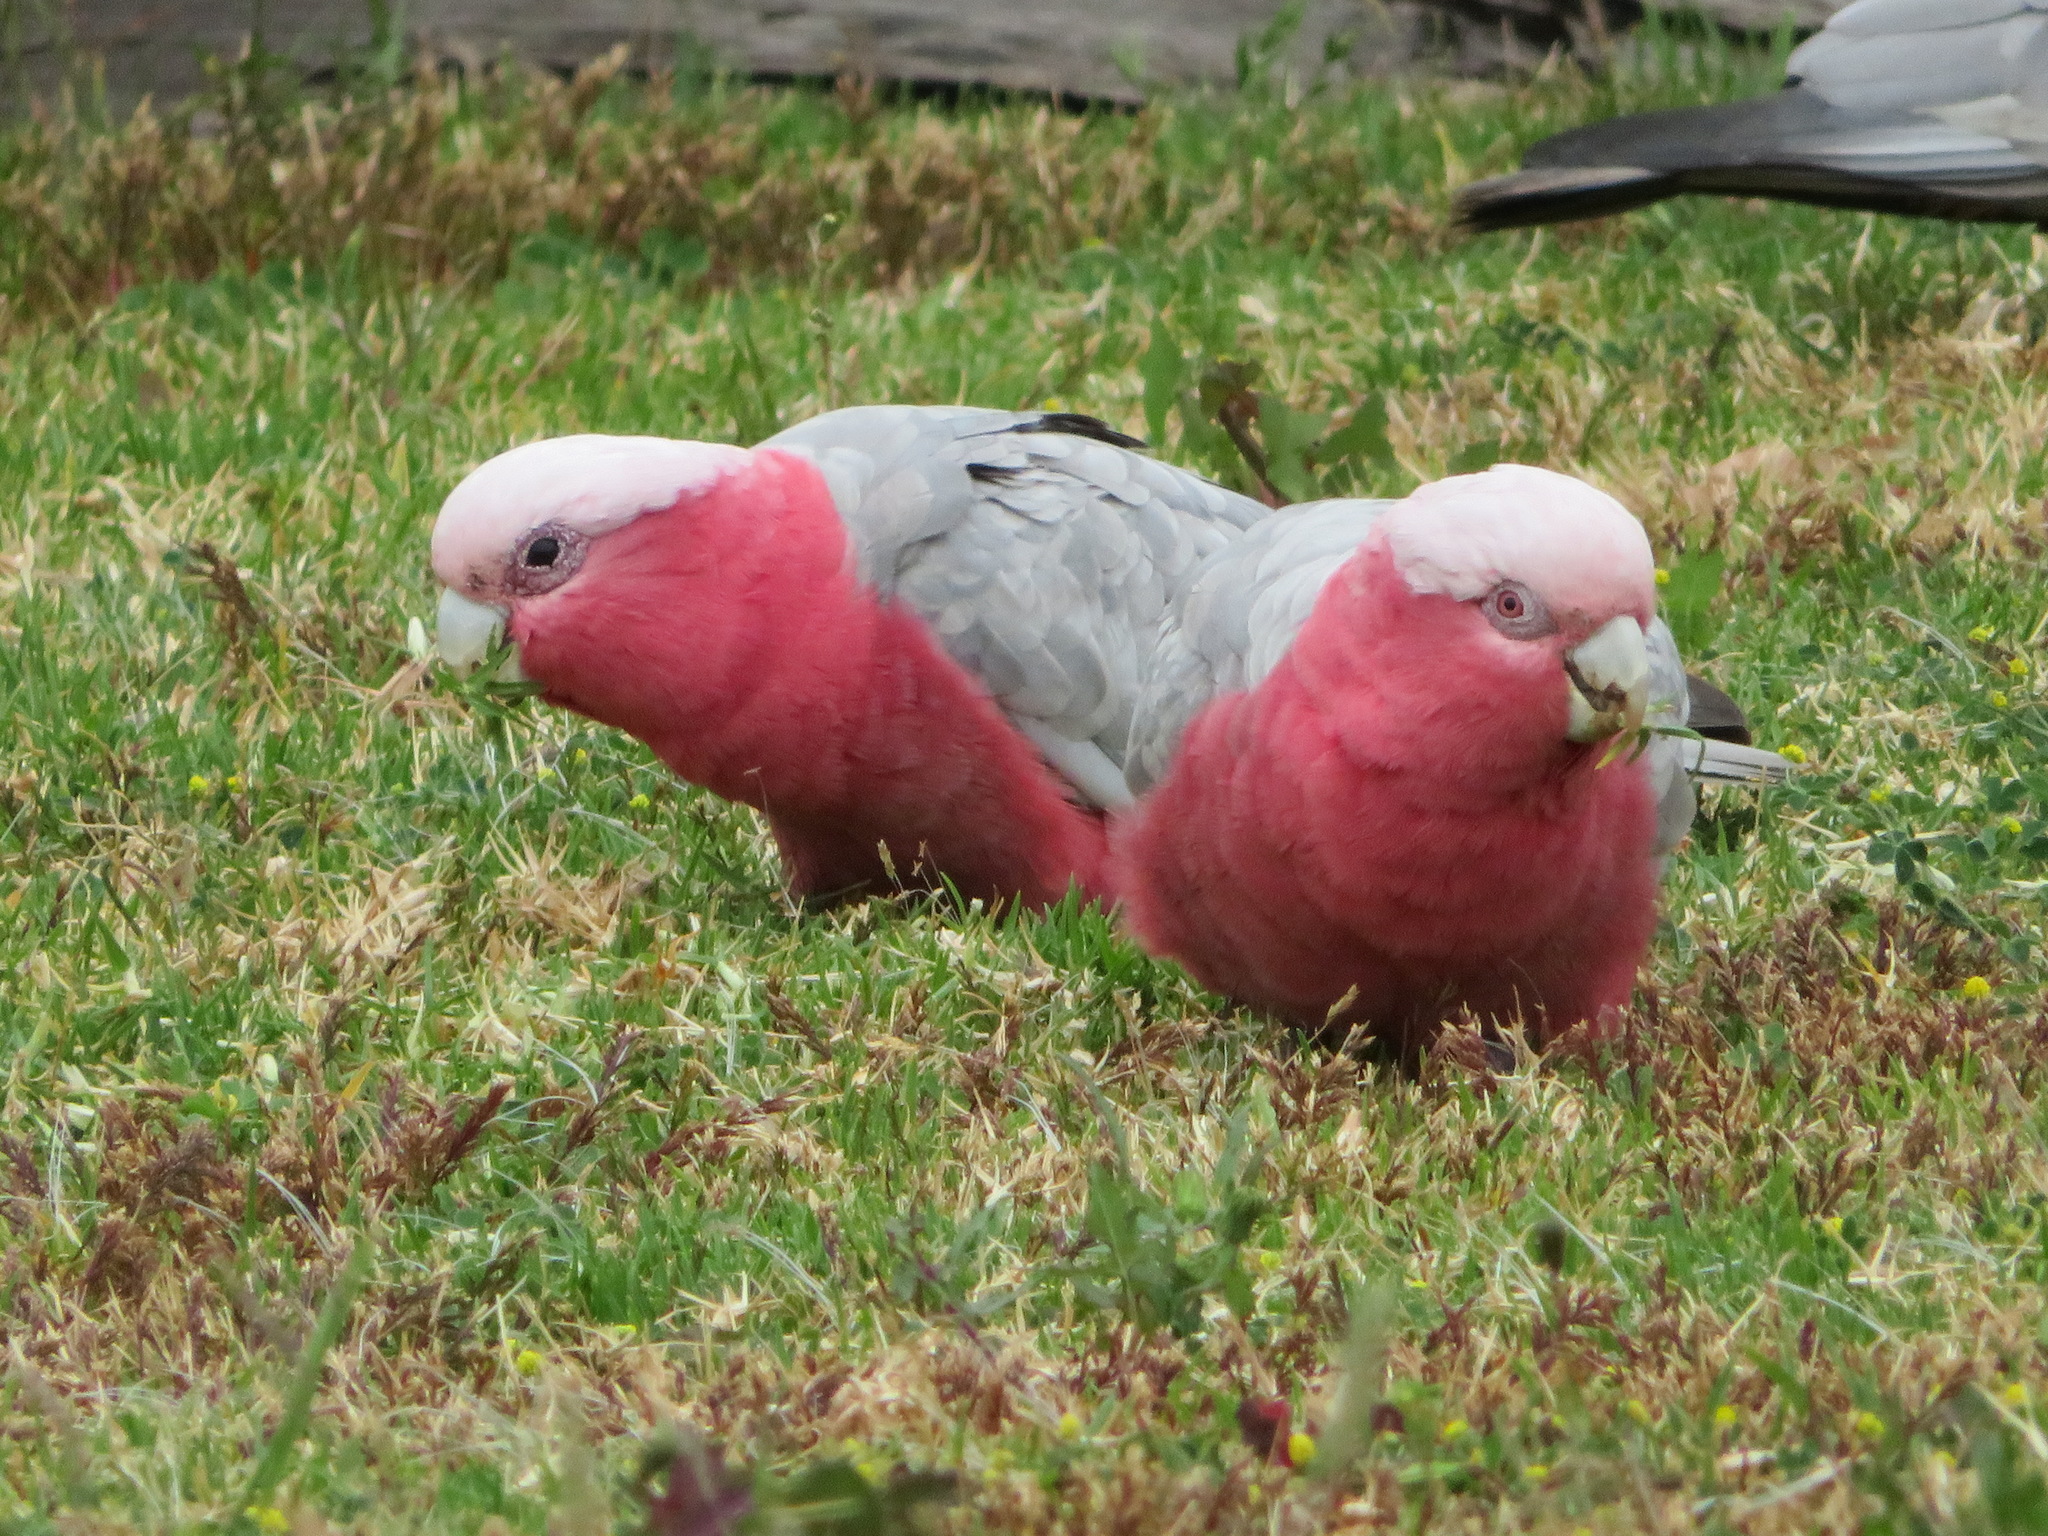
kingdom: Animalia
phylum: Chordata
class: Aves
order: Psittaciformes
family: Psittacidae
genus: Eolophus
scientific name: Eolophus roseicapilla
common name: Galah
